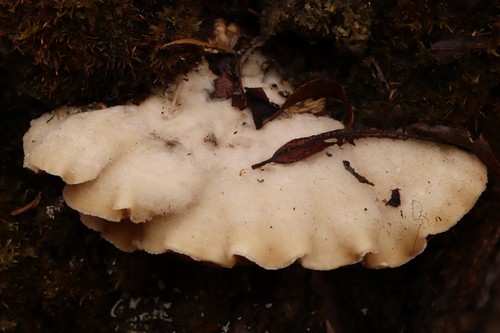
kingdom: Fungi
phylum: Basidiomycota
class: Agaricomycetes
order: Polyporales
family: Polyporaceae
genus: Trametes
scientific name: Trametes suaveolens
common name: Fragrant bracket
